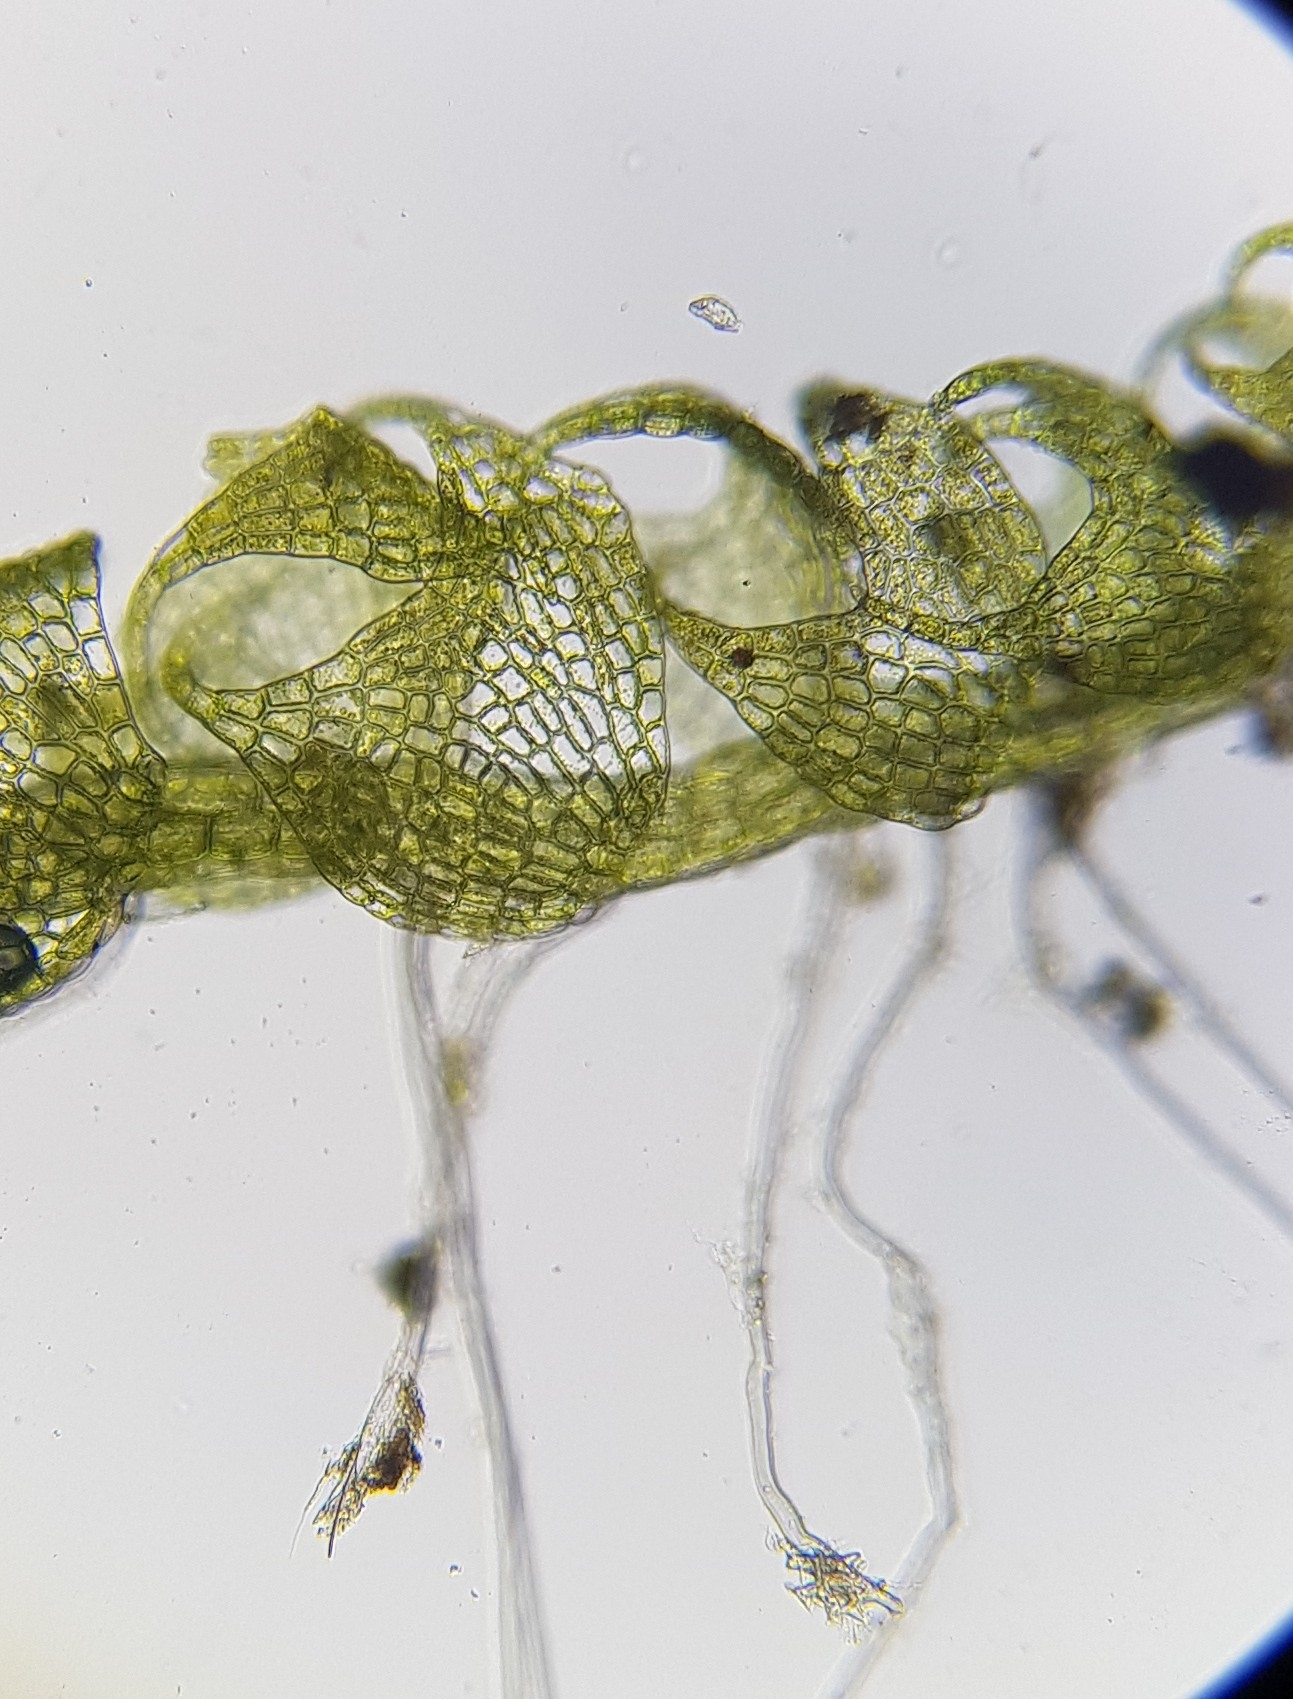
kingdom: Plantae
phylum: Marchantiophyta
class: Jungermanniopsida
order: Jungermanniales
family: Cephaloziaceae
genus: Nowellia
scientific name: Nowellia curvifolia
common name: Wood rustwort
